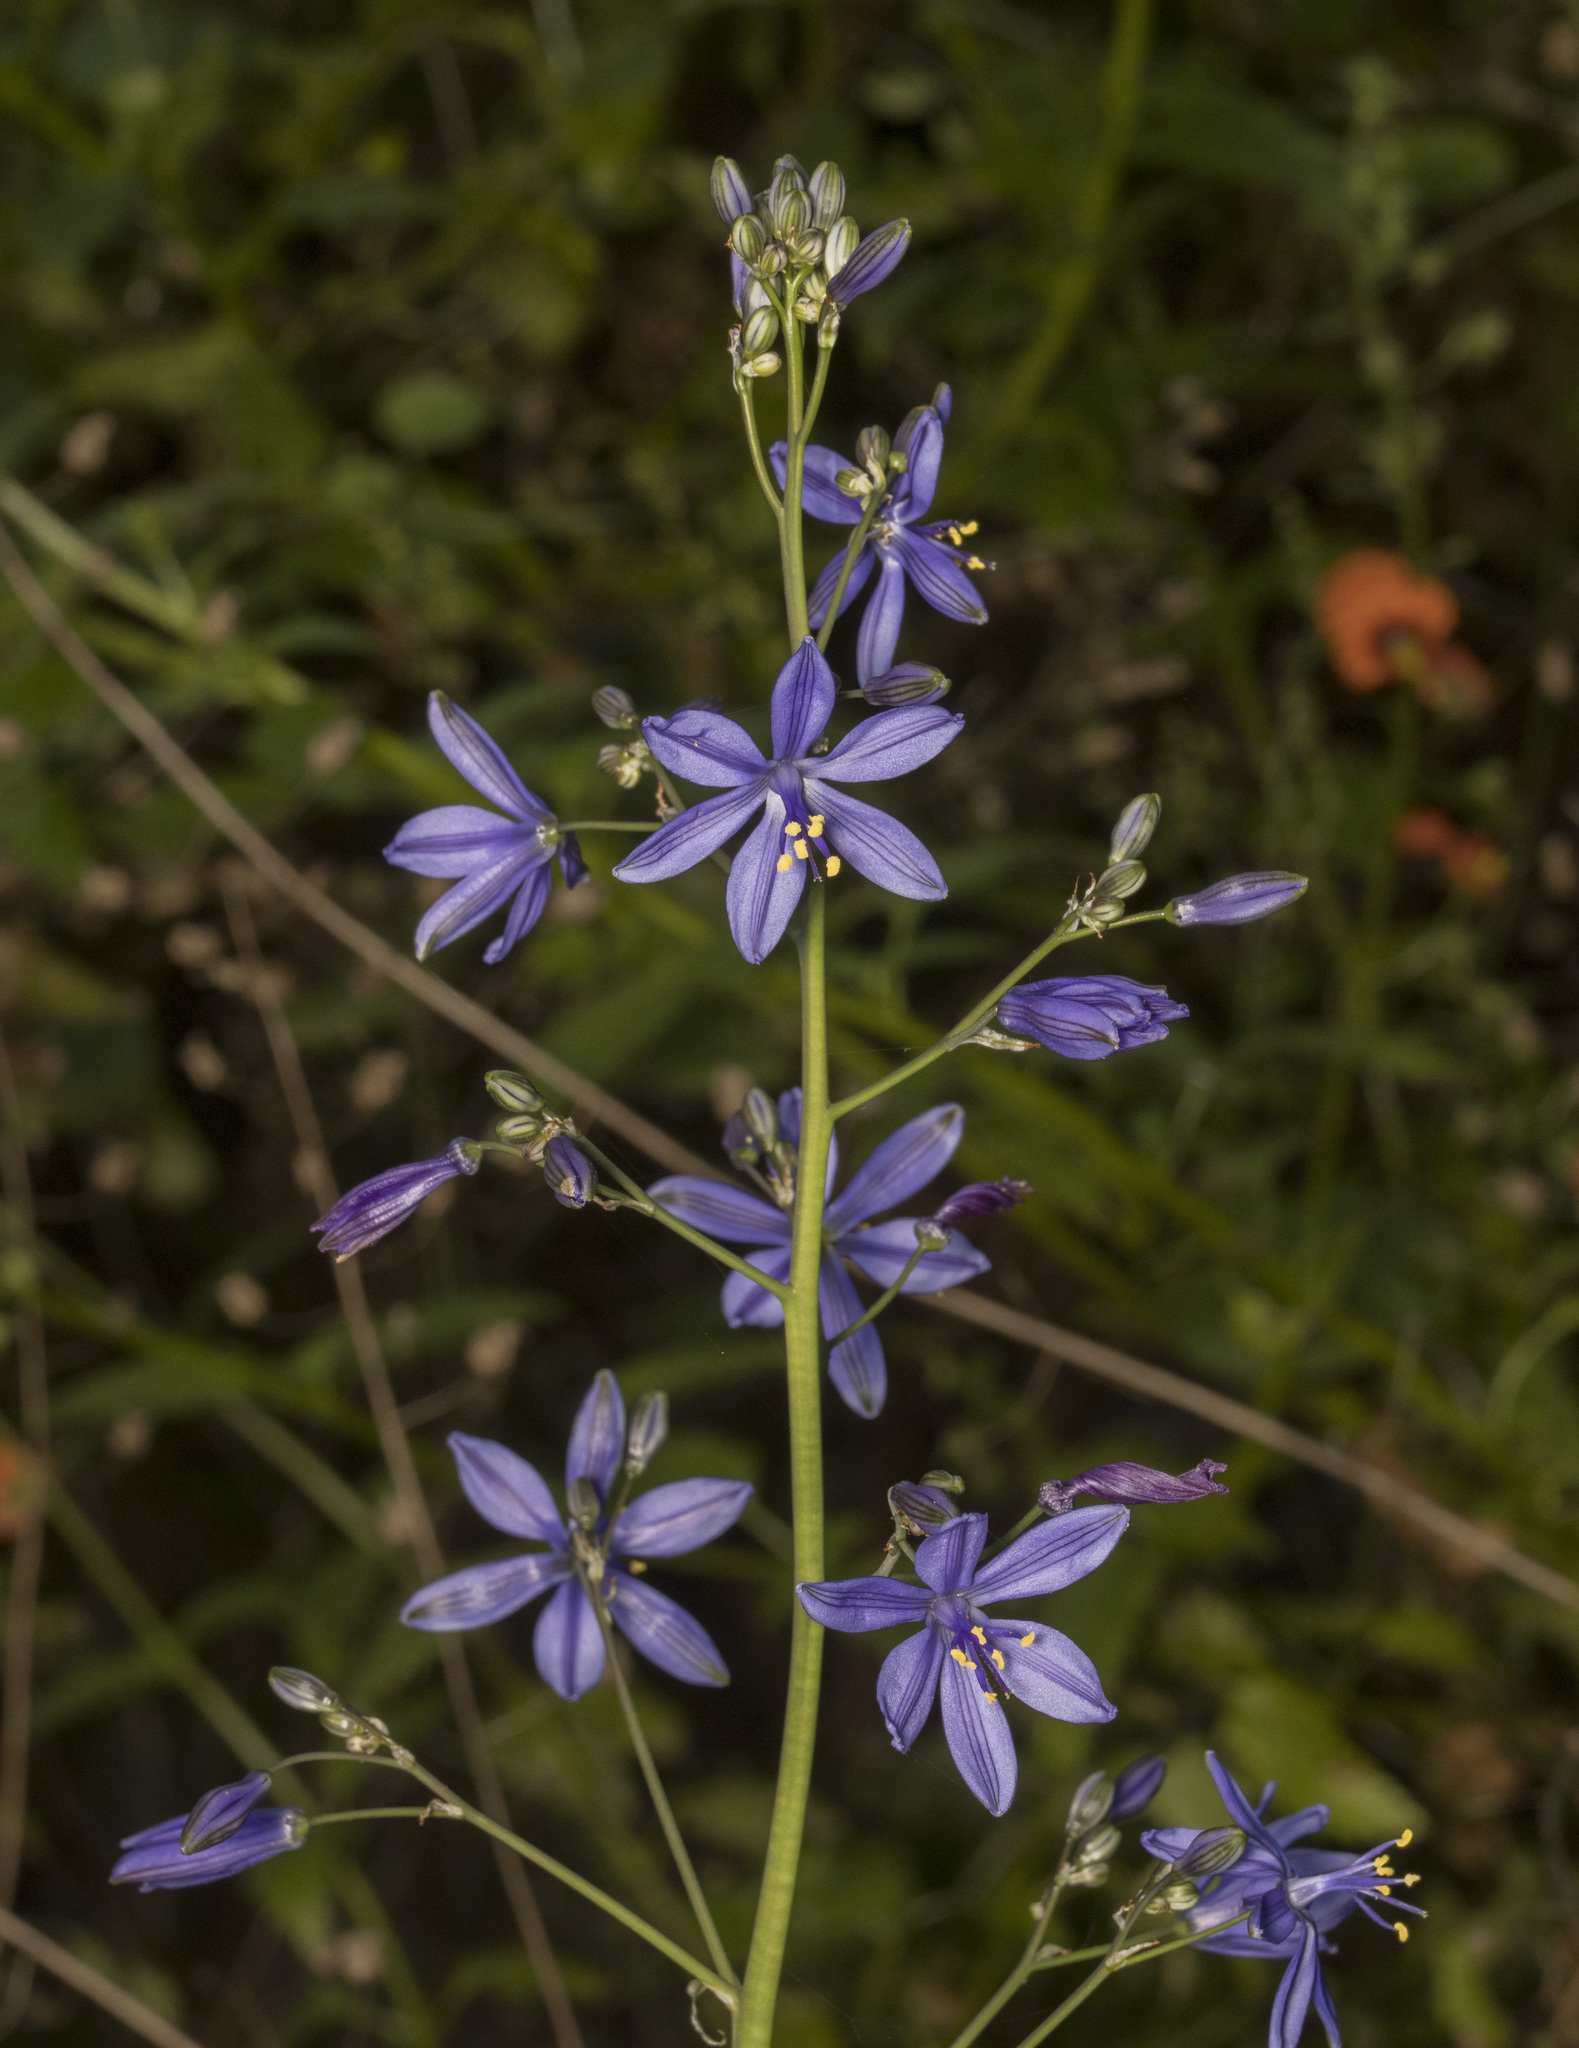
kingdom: Plantae
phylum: Tracheophyta
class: Liliopsida
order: Asparagales
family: Asphodelaceae
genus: Pasithea
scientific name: Pasithea caerulea
